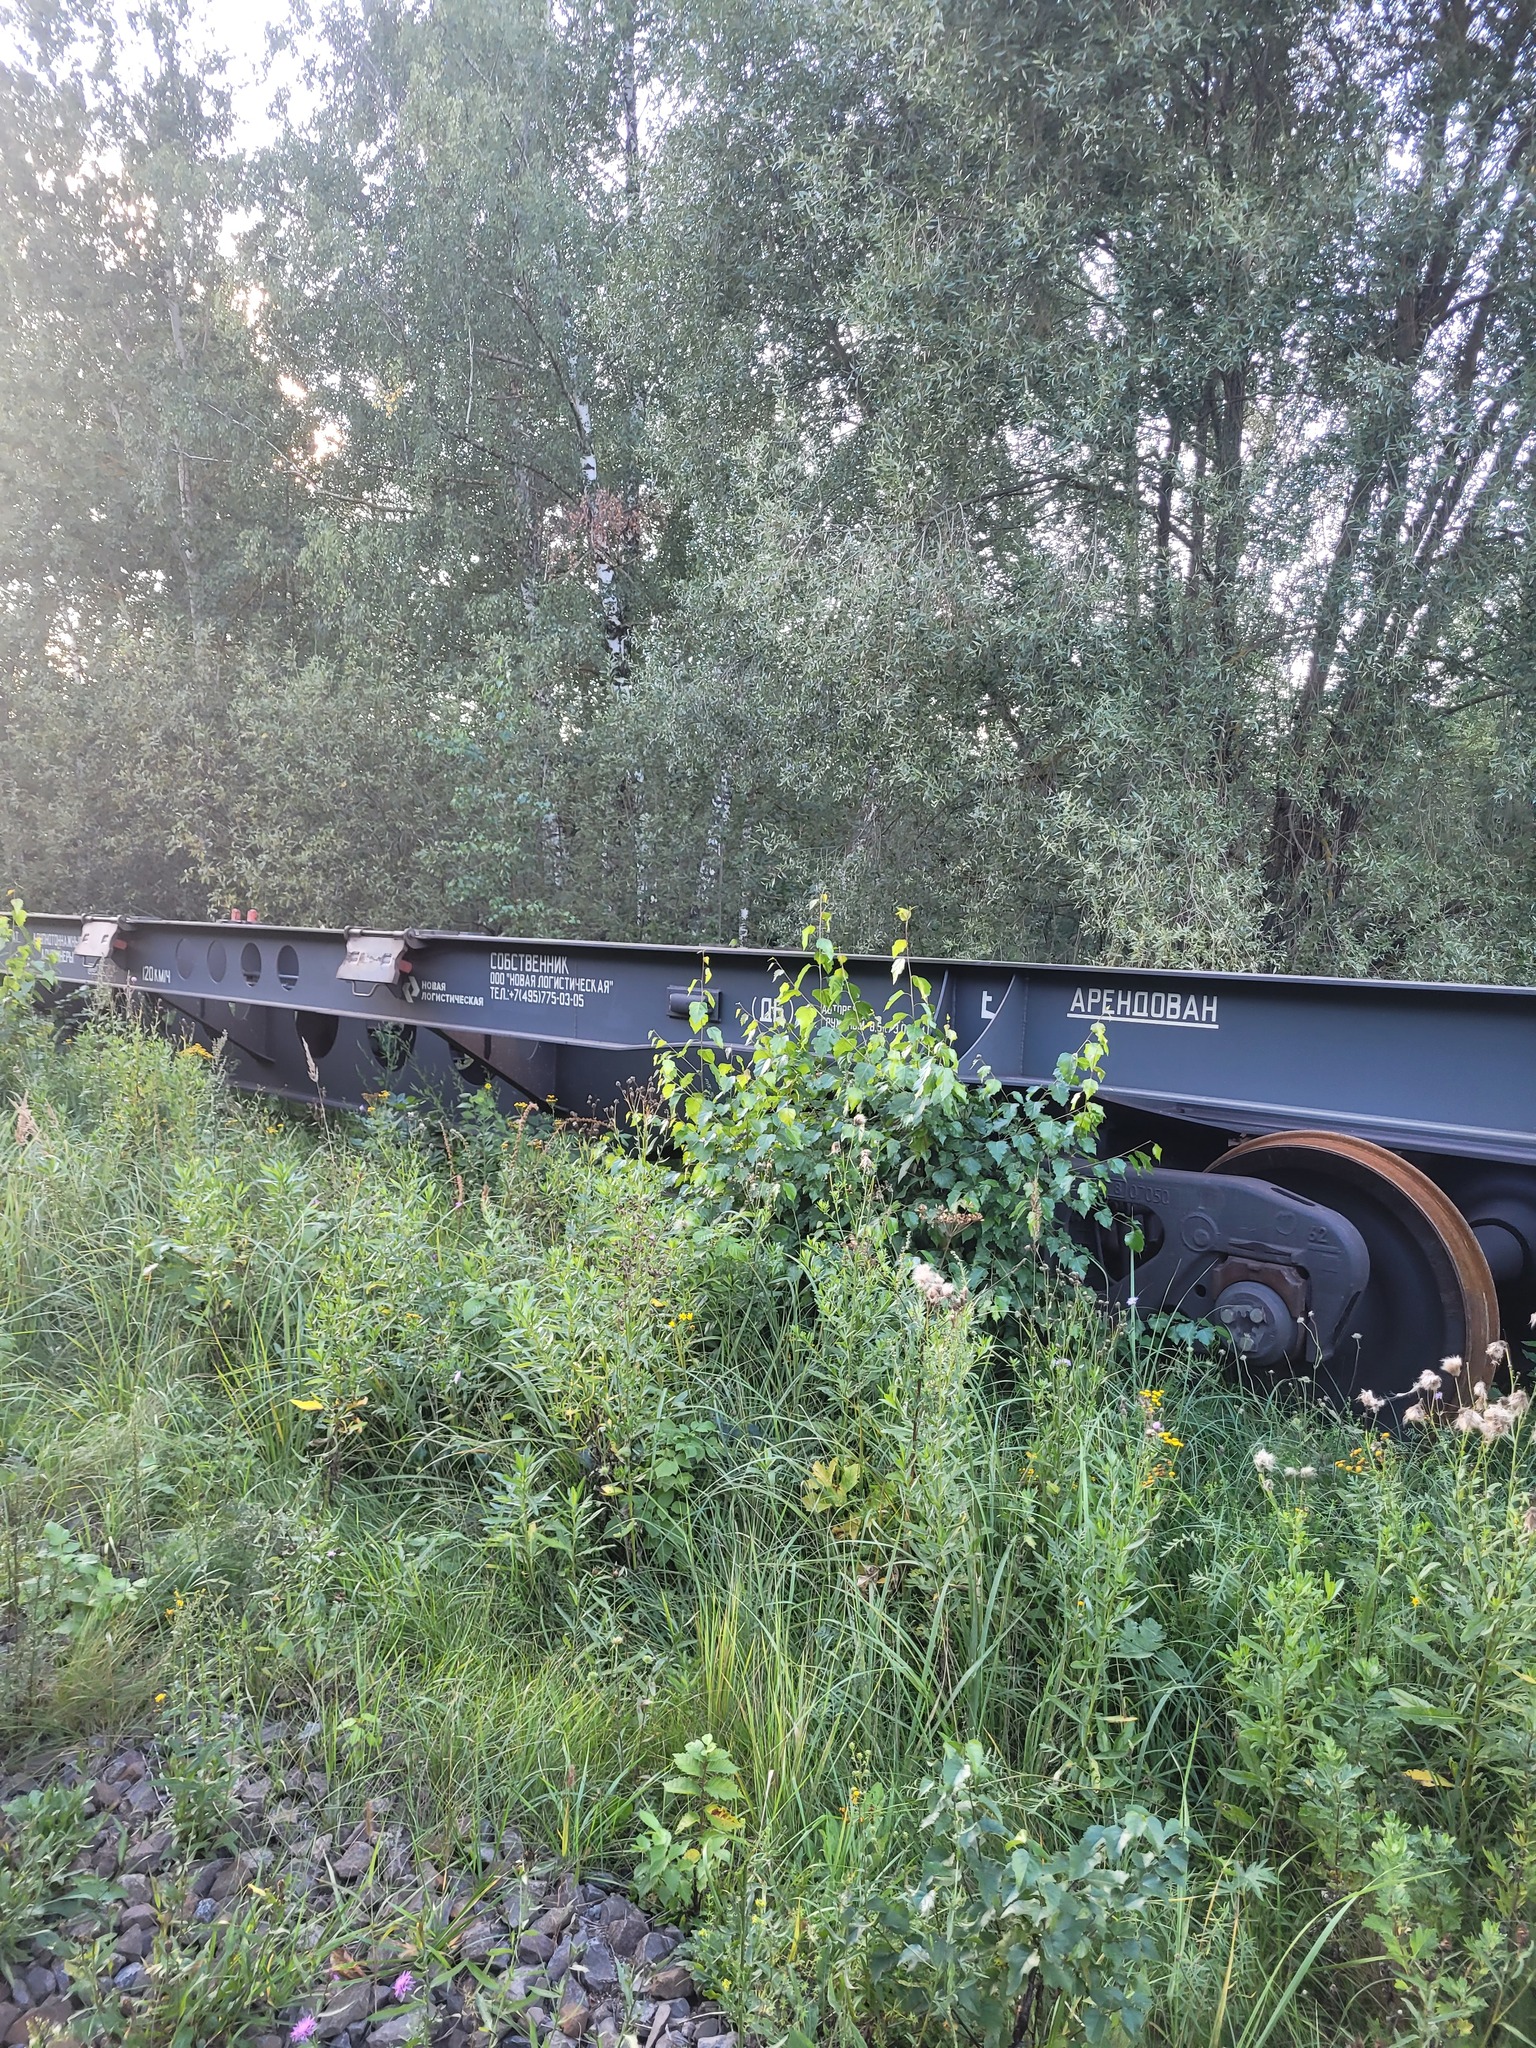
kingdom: Plantae
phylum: Tracheophyta
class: Magnoliopsida
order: Fagales
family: Betulaceae
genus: Betula
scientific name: Betula pendula
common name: Silver birch
